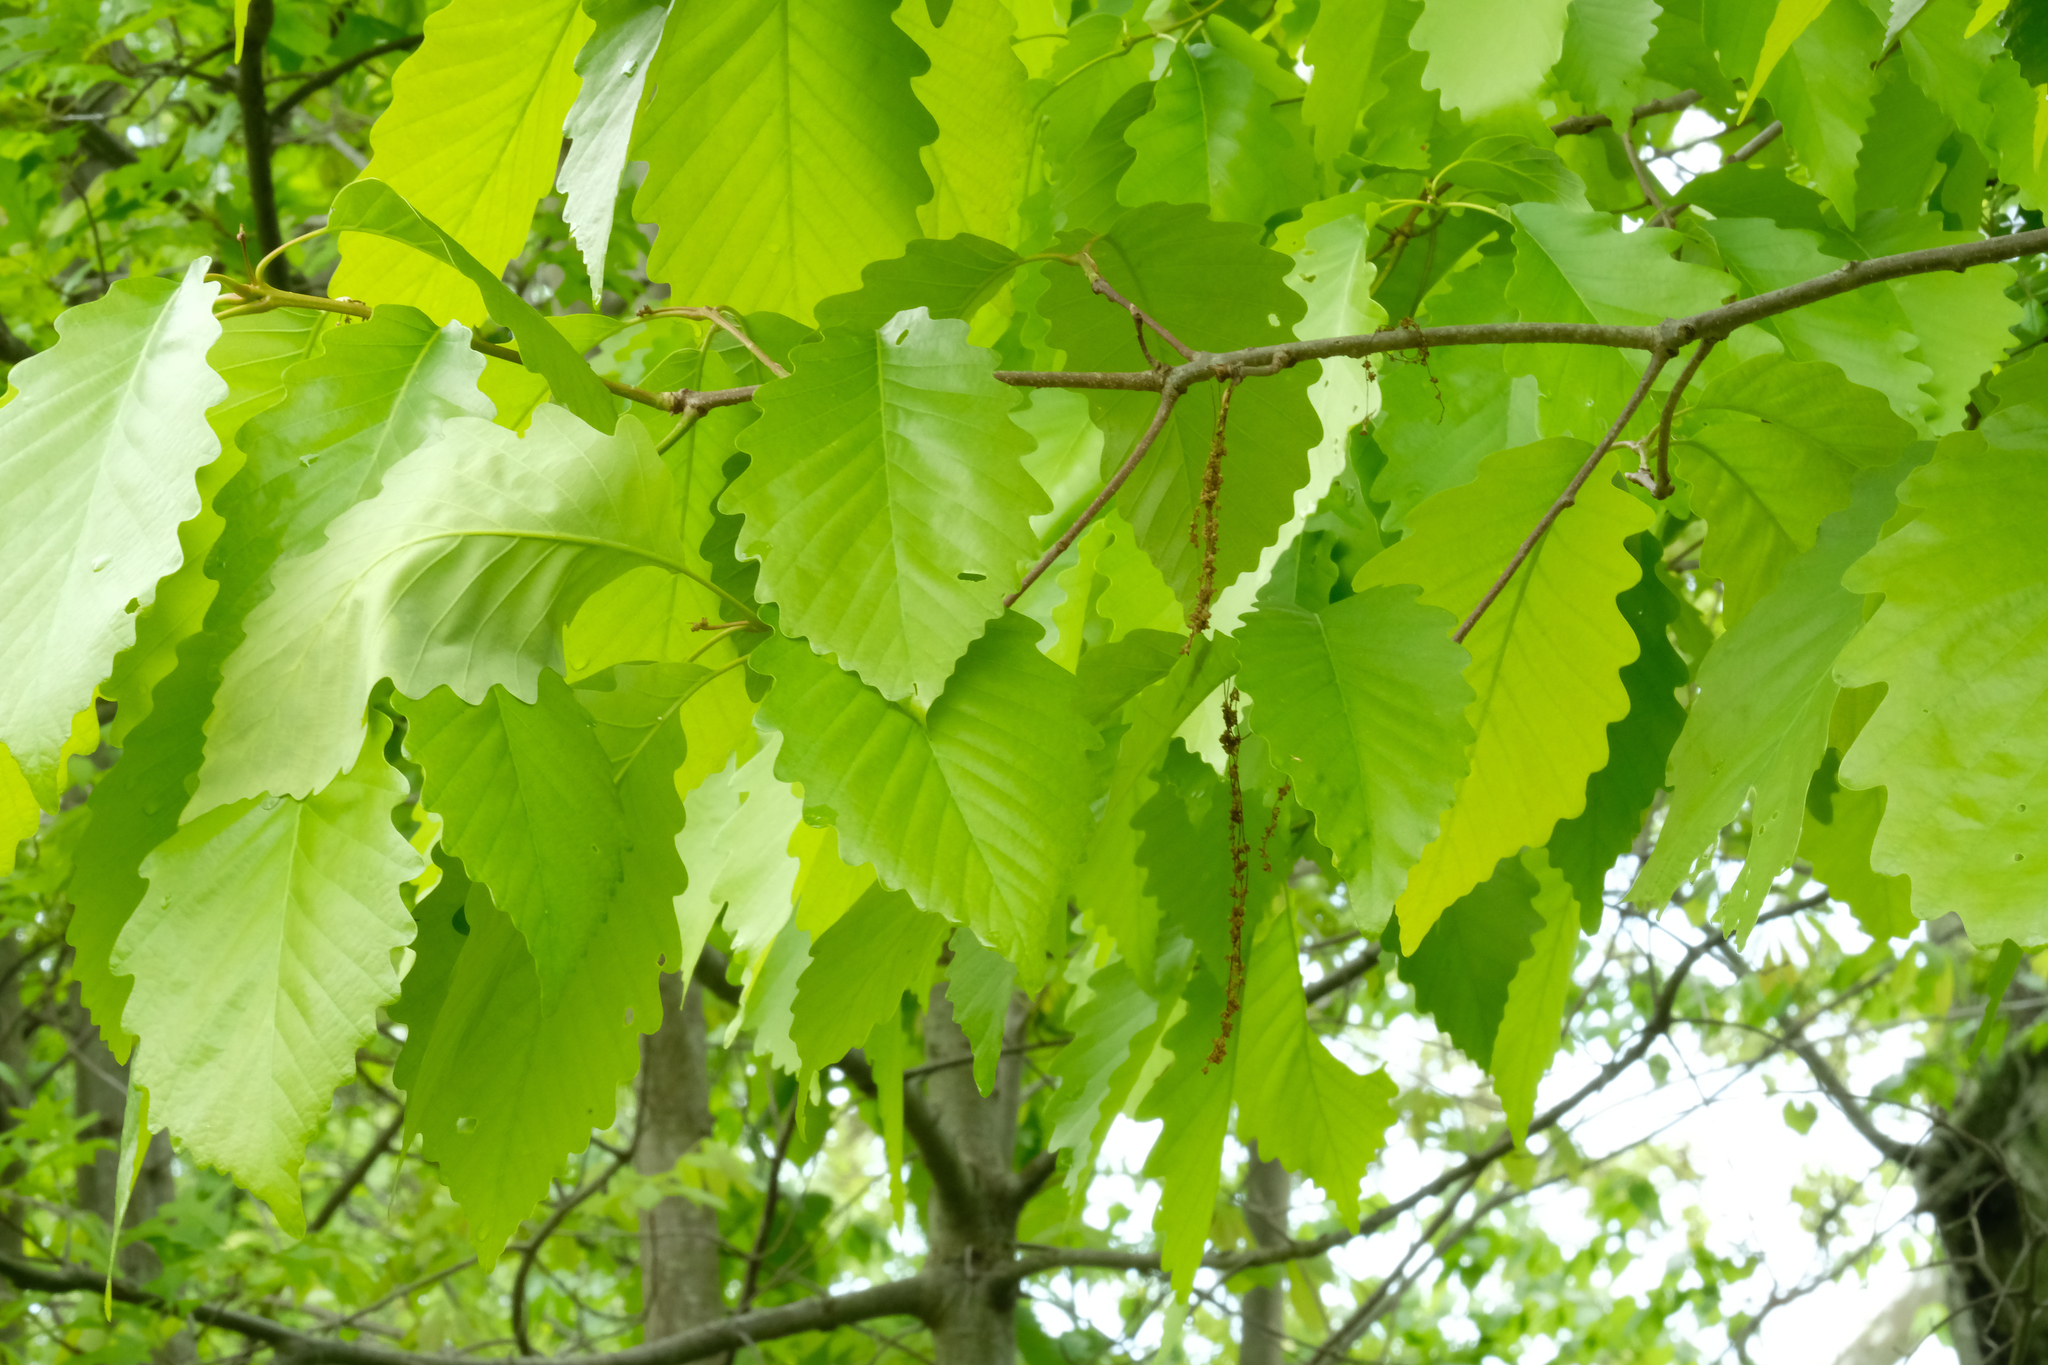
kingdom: Plantae
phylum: Tracheophyta
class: Magnoliopsida
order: Fagales
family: Fagaceae
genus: Quercus
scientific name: Quercus montana
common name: Chestnut oak
